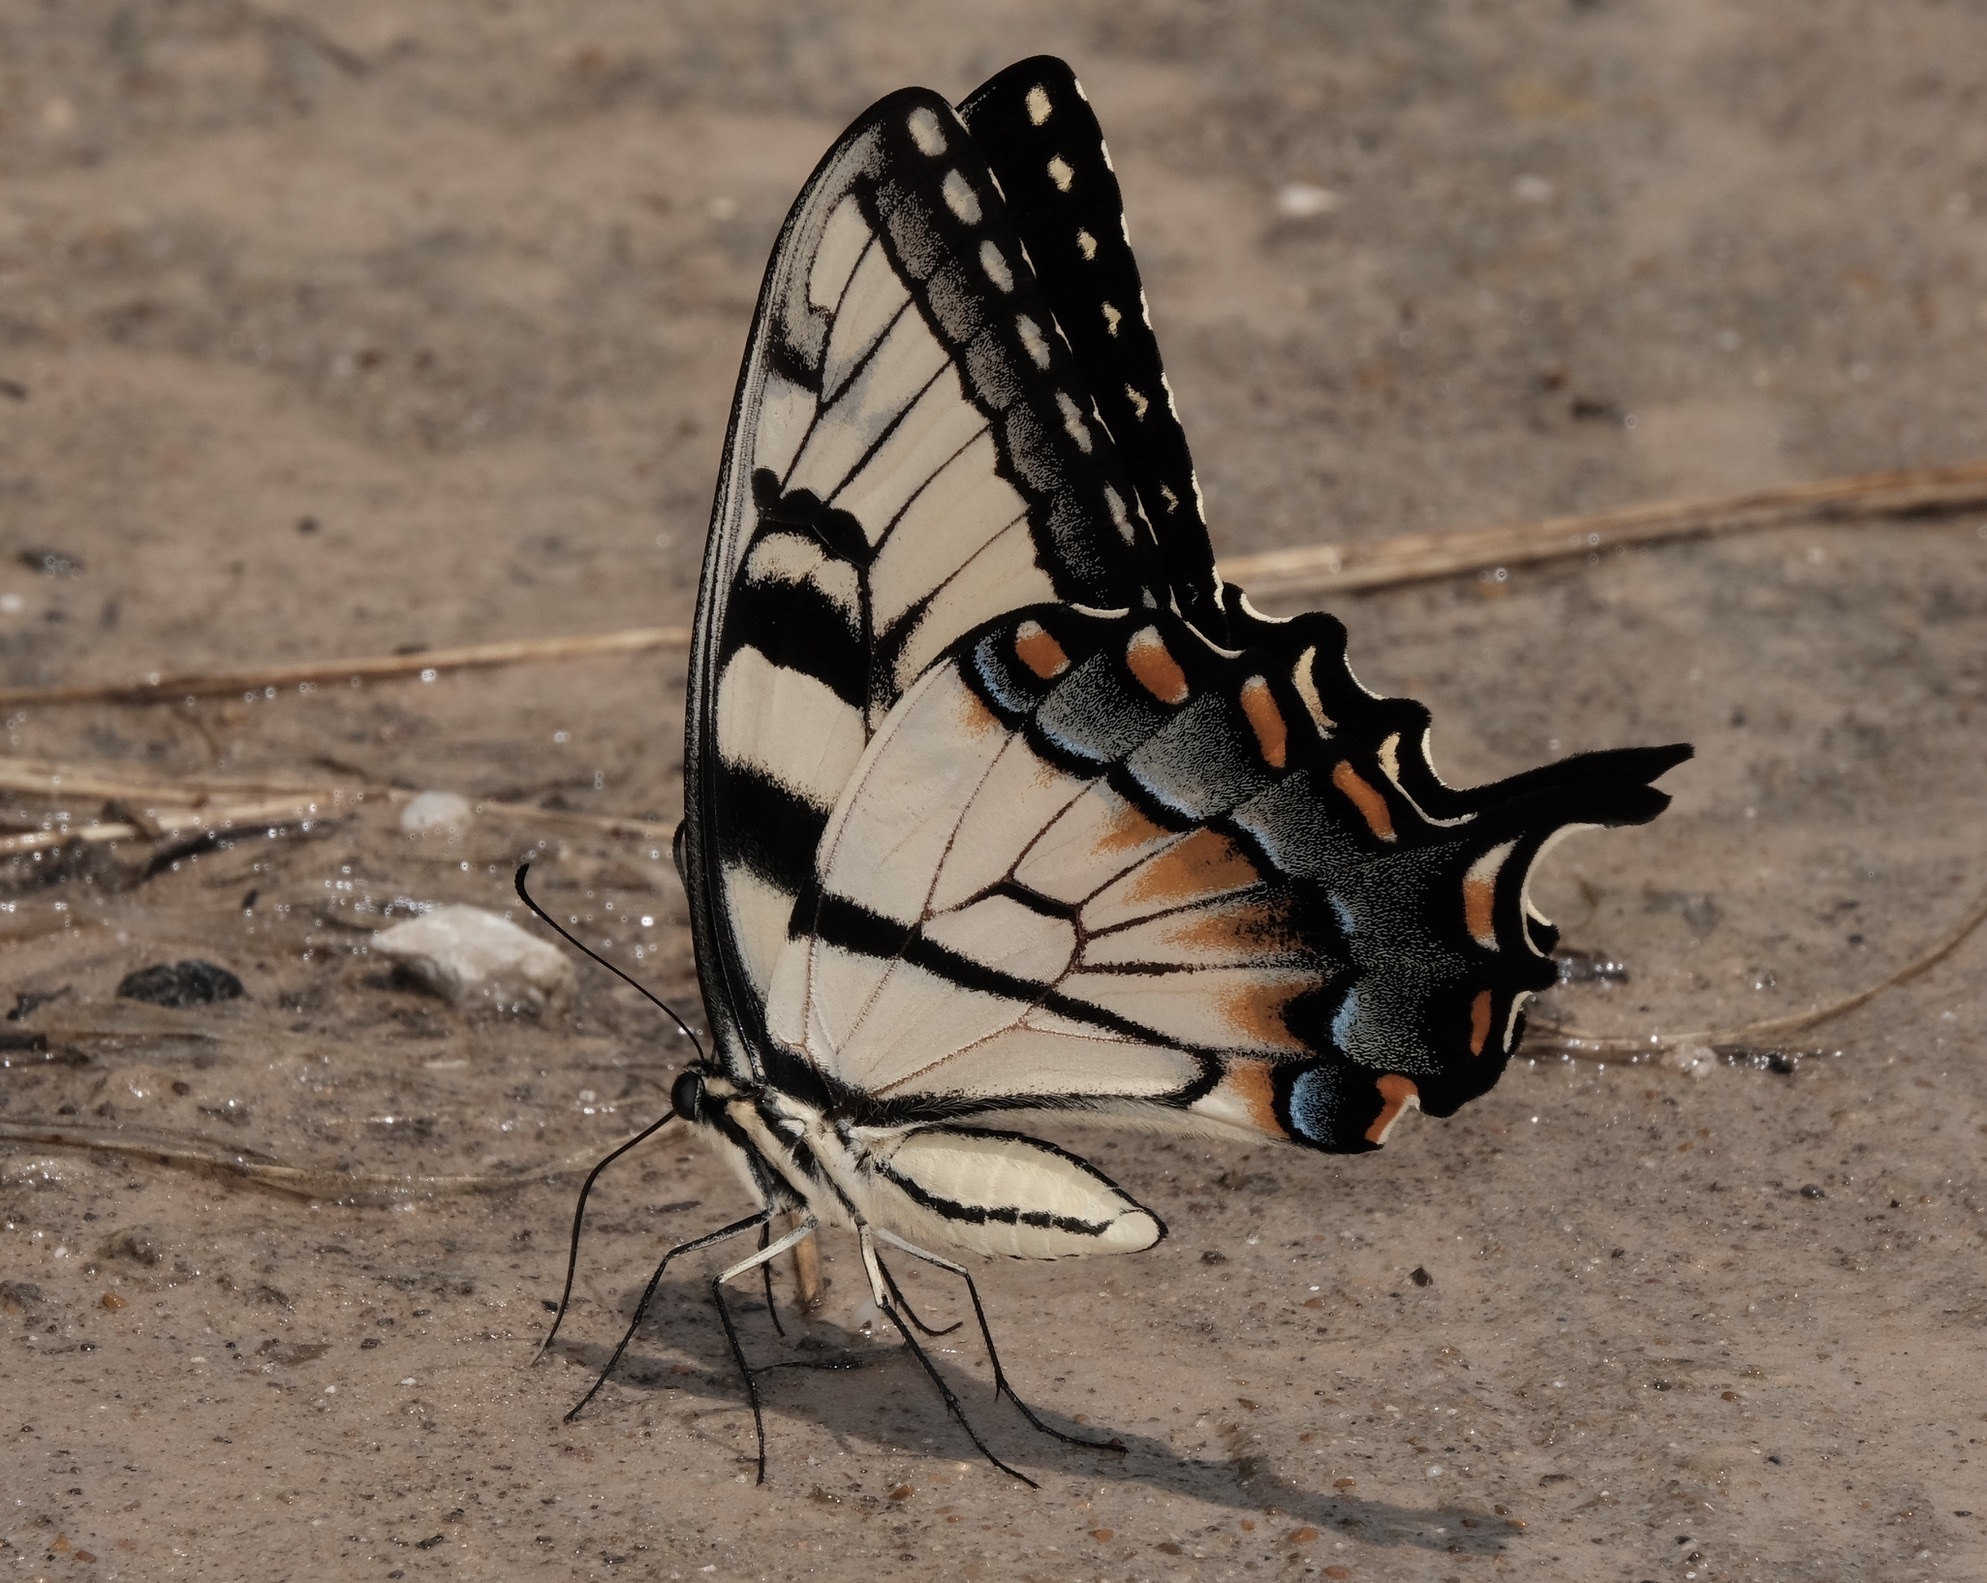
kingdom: Animalia
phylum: Arthropoda
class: Insecta
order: Lepidoptera
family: Papilionidae
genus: Papilio
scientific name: Papilio glaucus
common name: Tiger swallowtail
